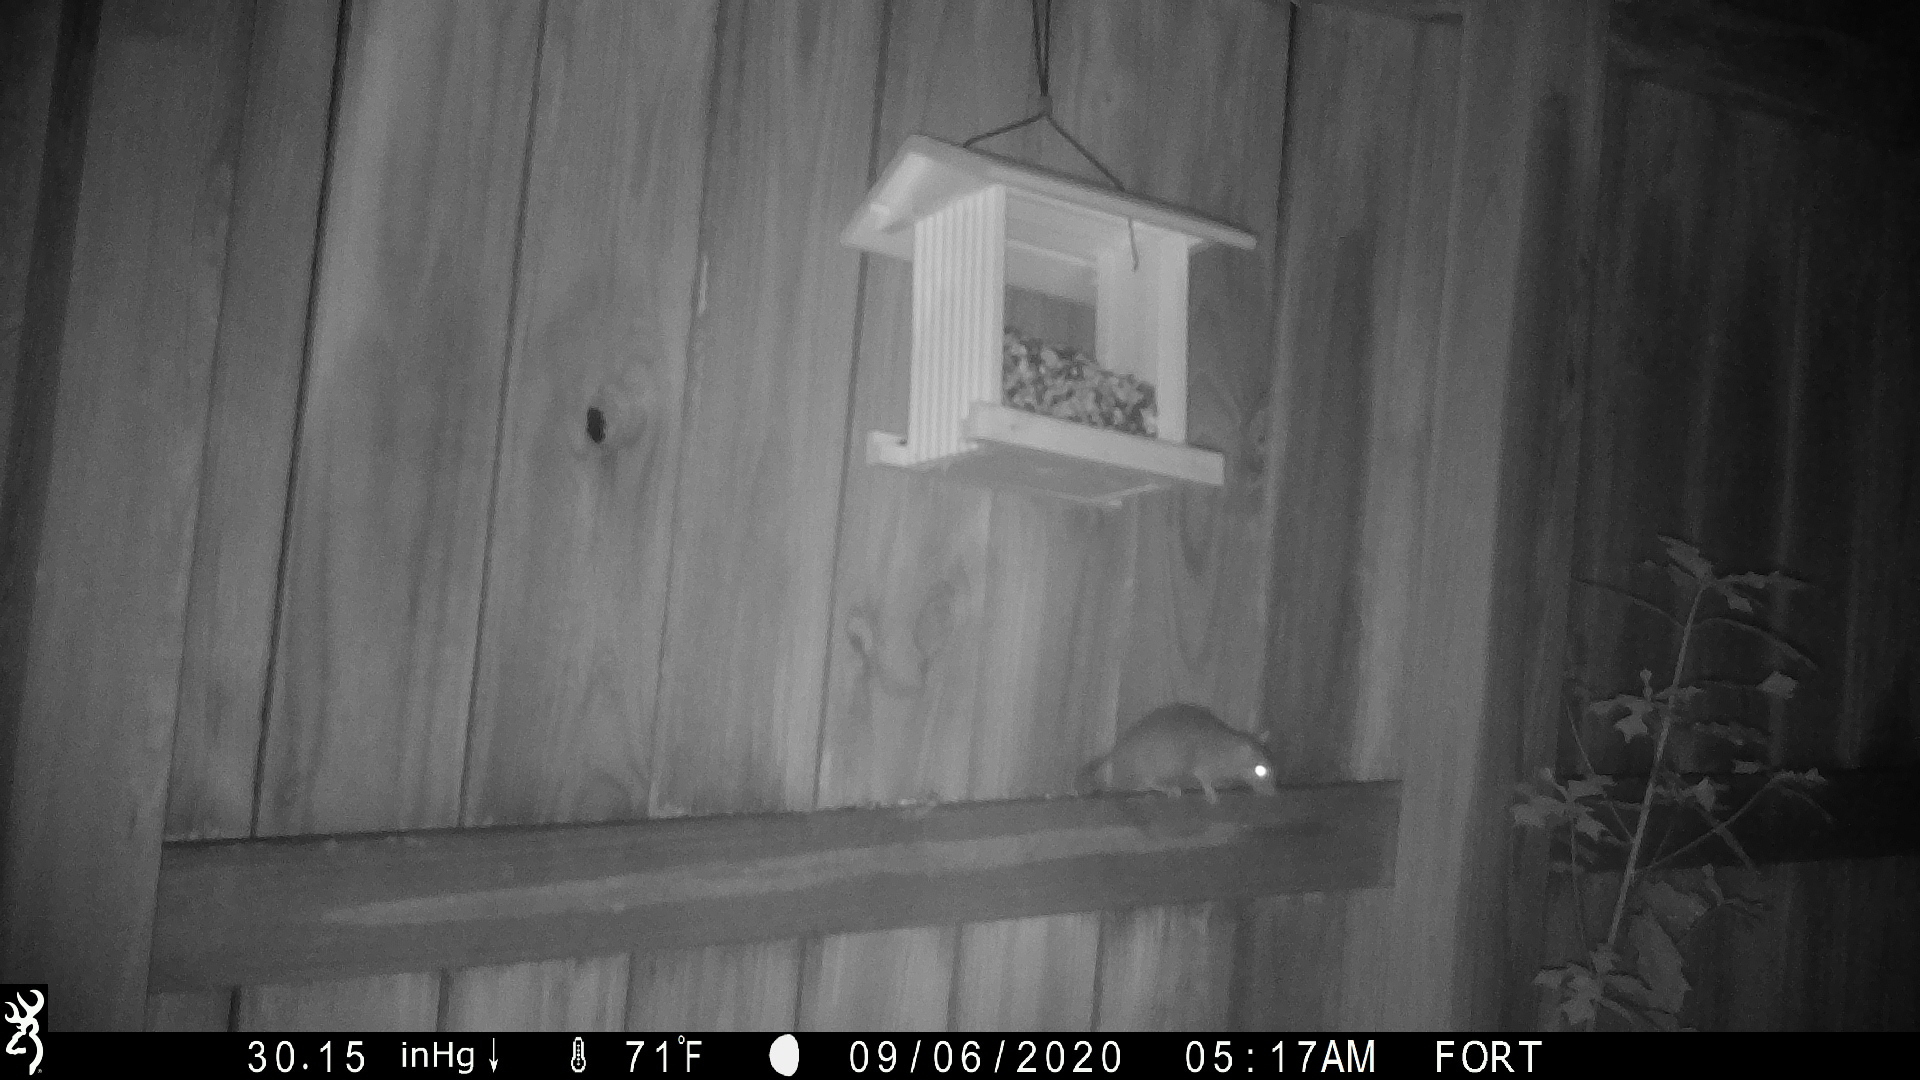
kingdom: Animalia
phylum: Chordata
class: Mammalia
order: Rodentia
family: Muridae
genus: Rattus
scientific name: Rattus rattus
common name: Black rat
